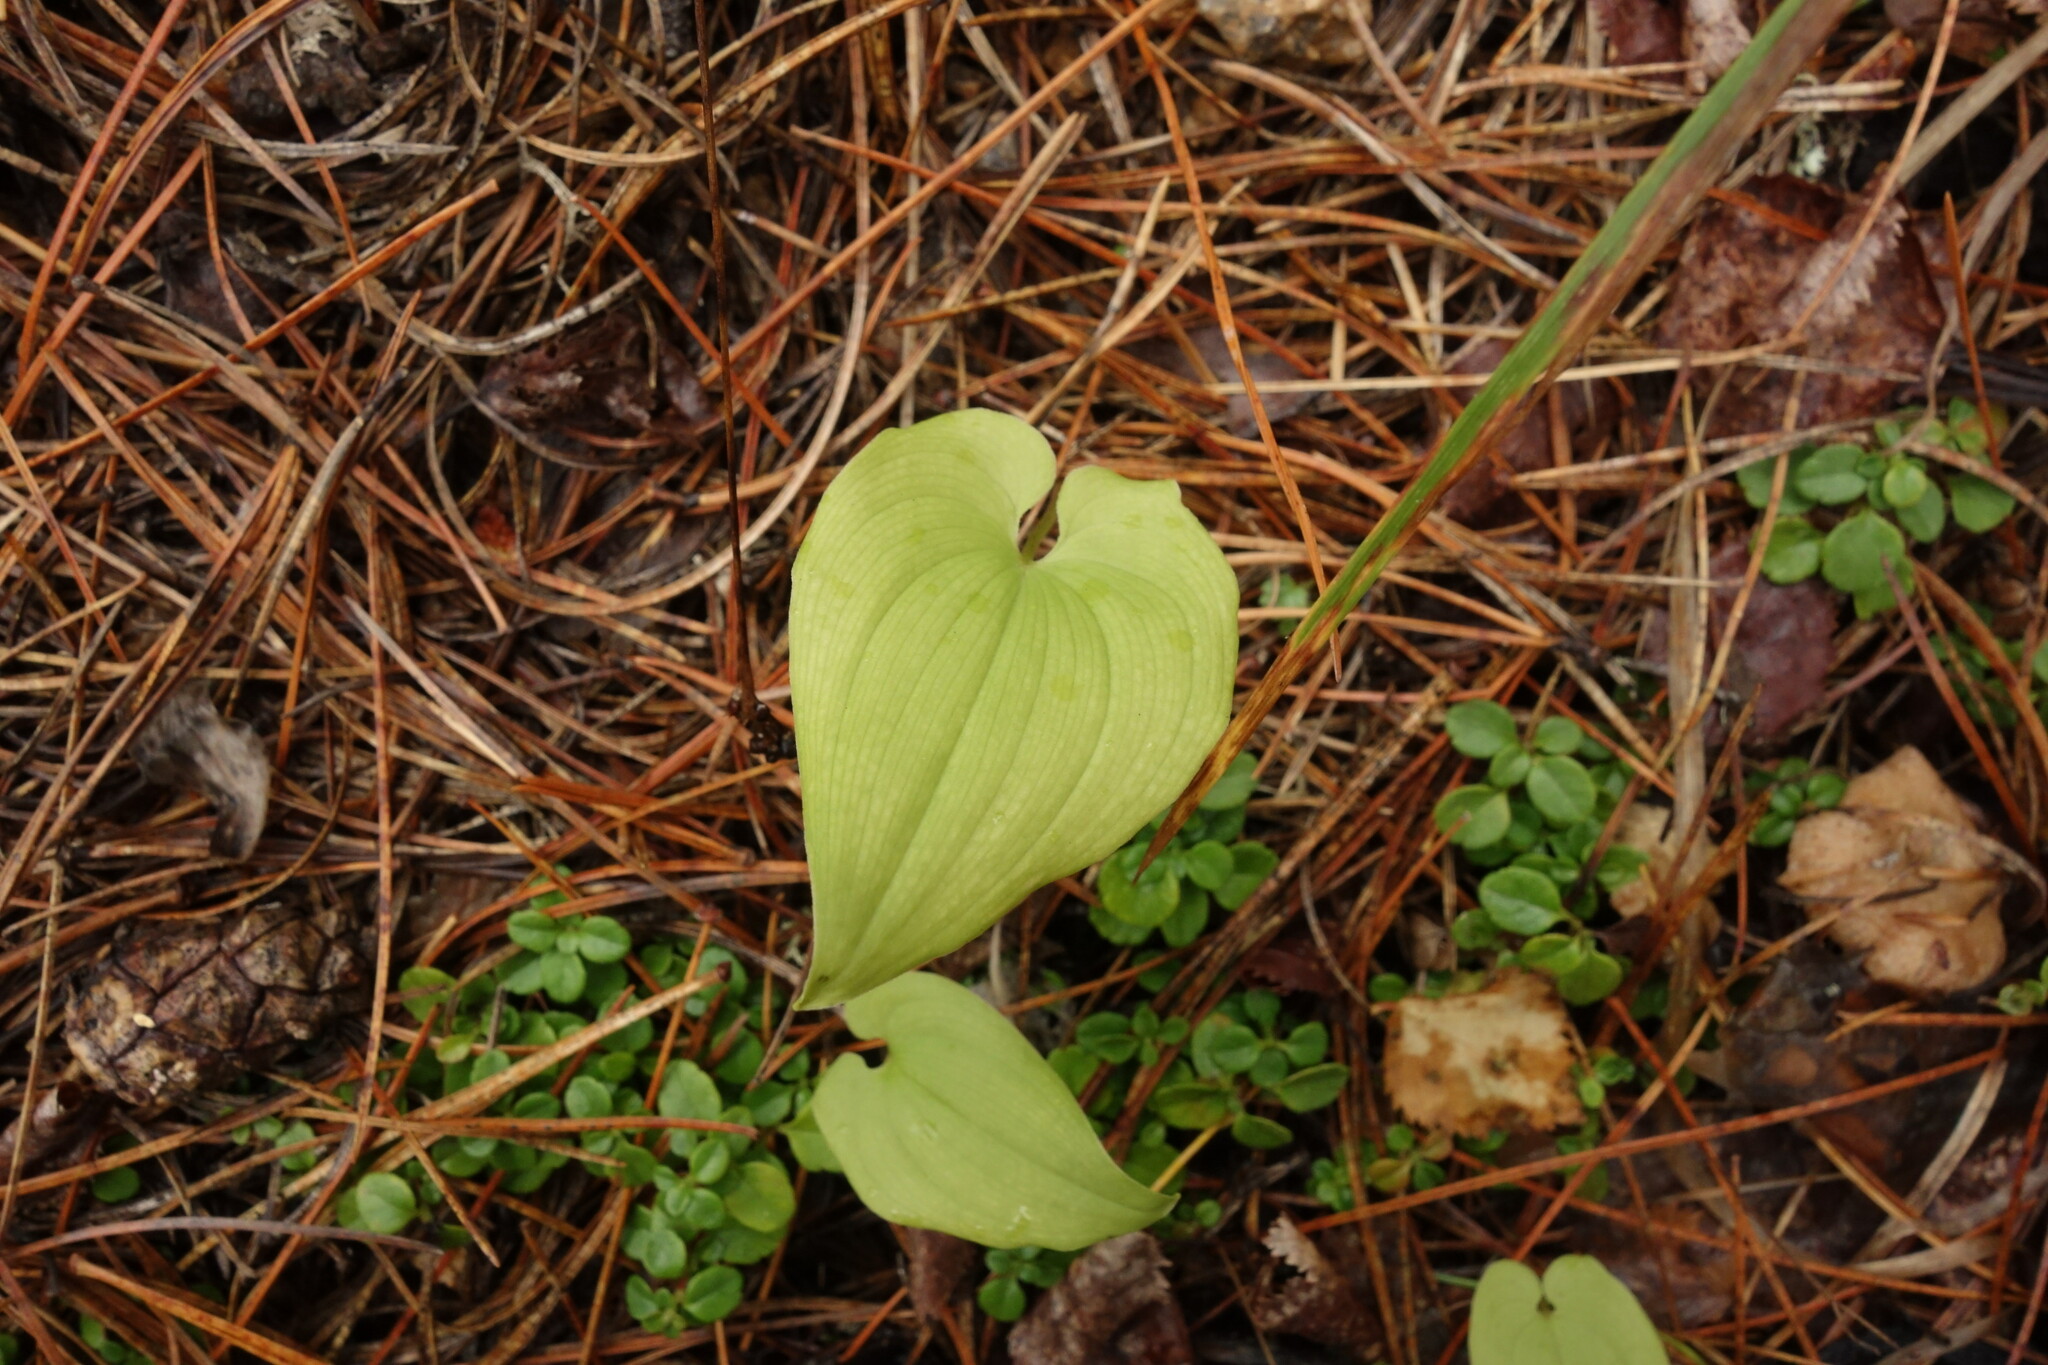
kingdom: Plantae
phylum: Tracheophyta
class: Liliopsida
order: Asparagales
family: Asparagaceae
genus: Maianthemum
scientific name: Maianthemum bifolium
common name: May lily
